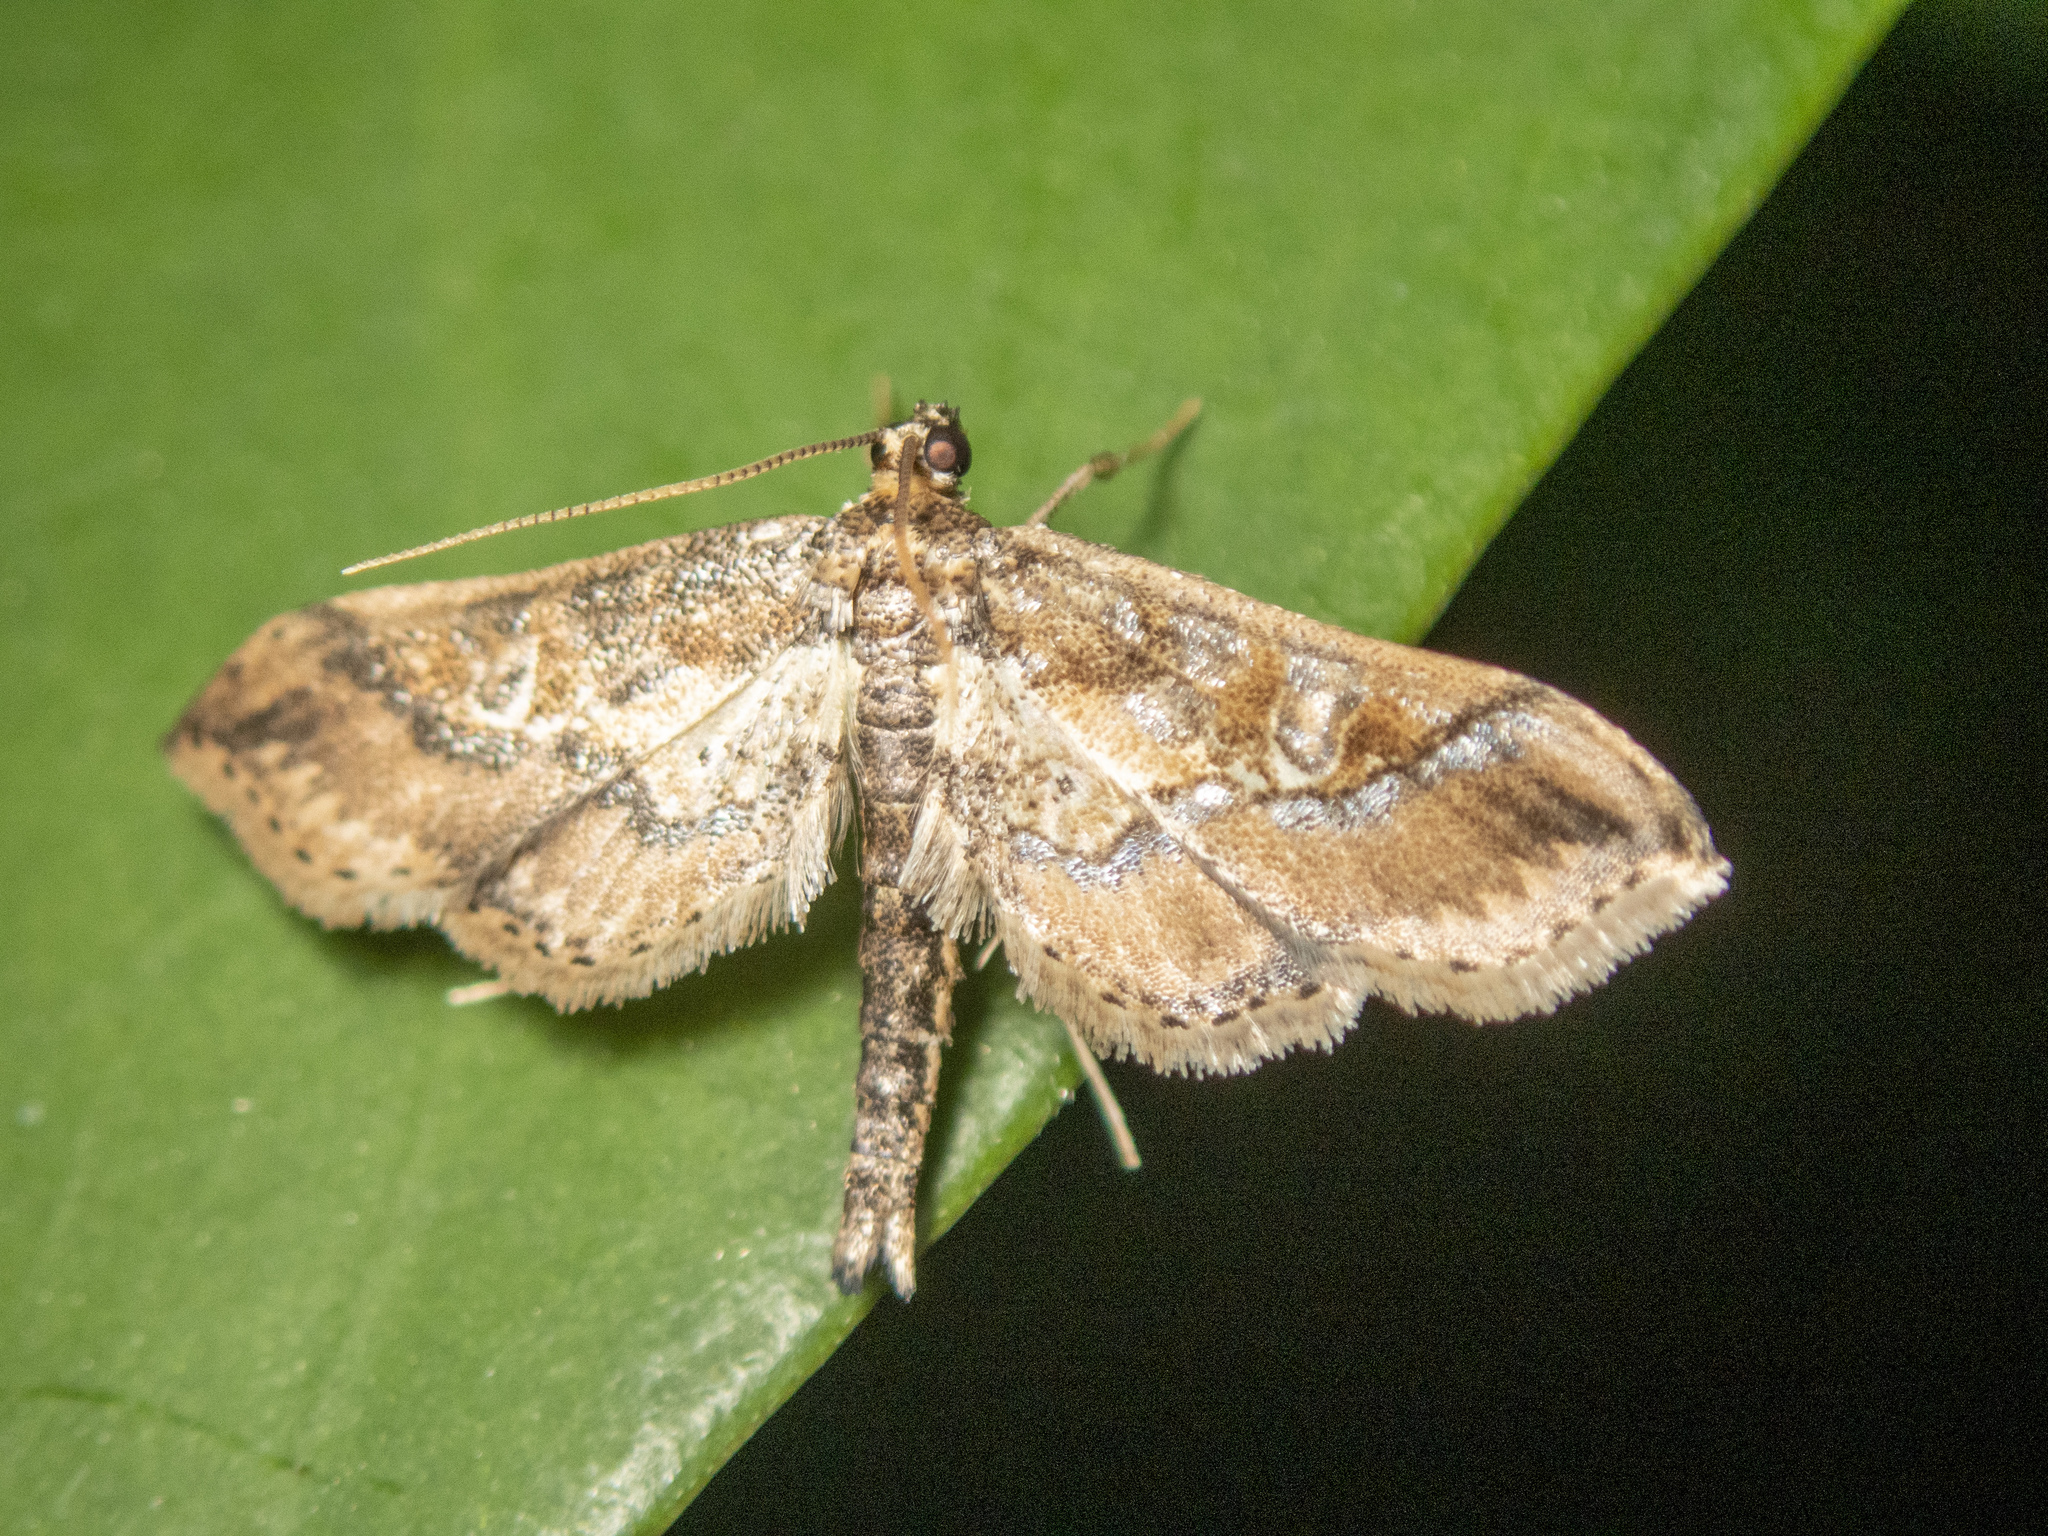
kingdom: Animalia
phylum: Arthropoda
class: Insecta
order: Lepidoptera
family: Crambidae
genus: Hydriris
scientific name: Hydriris ornatalis
